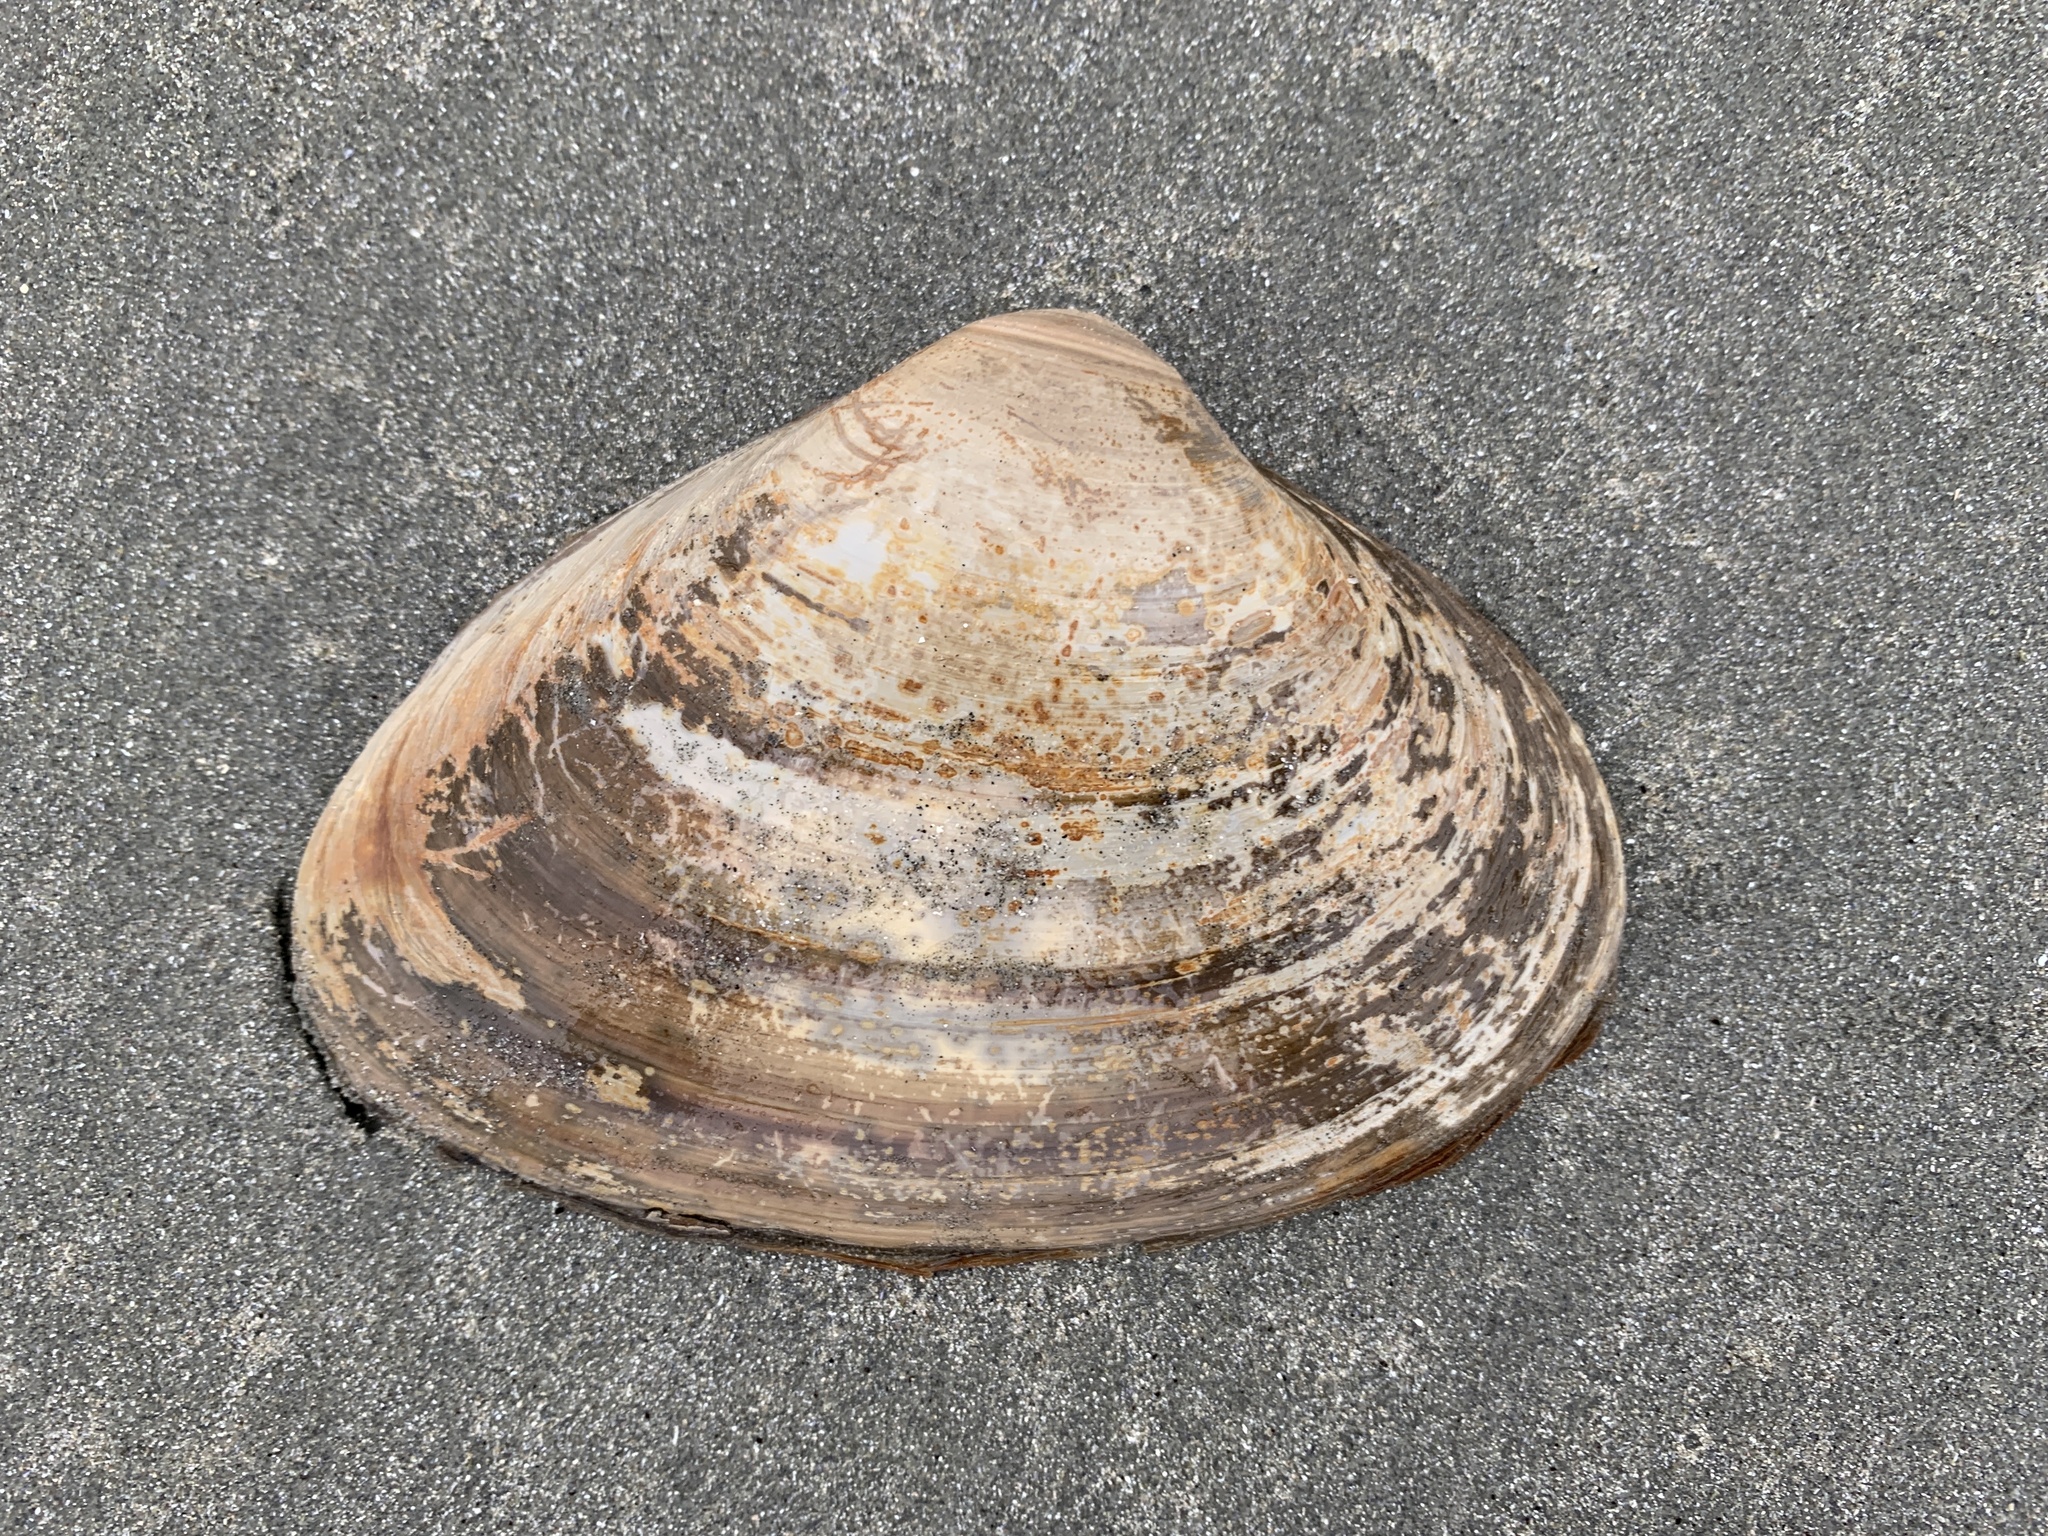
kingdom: Animalia
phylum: Mollusca
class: Bivalvia
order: Venerida
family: Mactridae
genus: Spisula
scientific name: Spisula solidissima
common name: Atlantic surf clam
